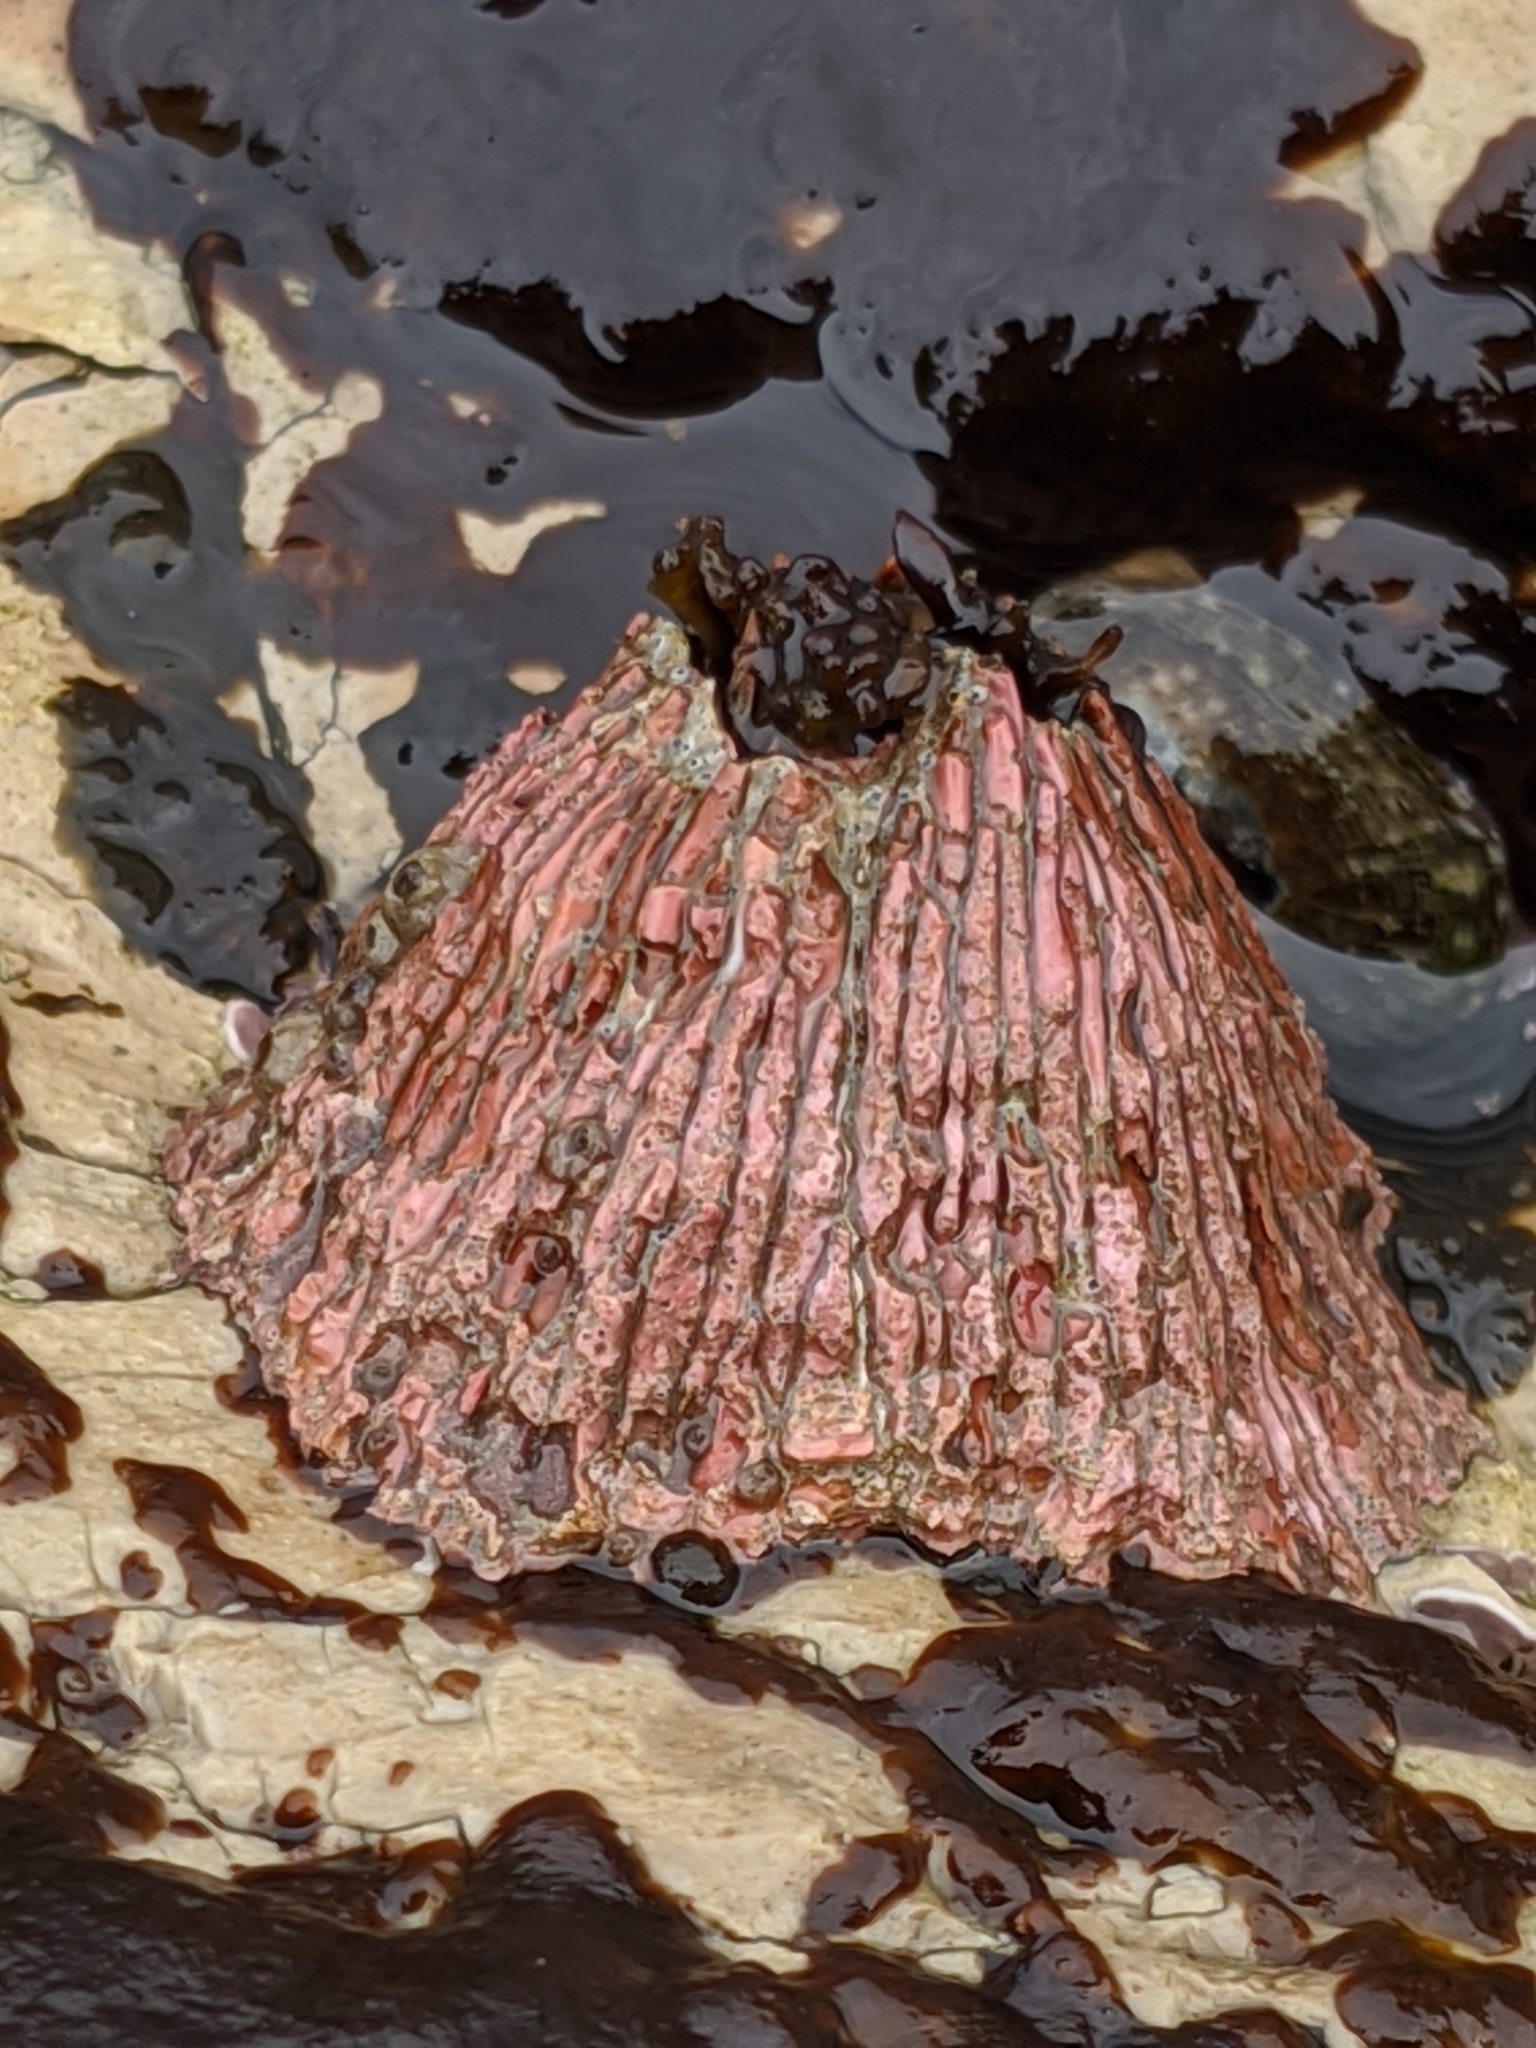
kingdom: Animalia
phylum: Arthropoda
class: Maxillopoda
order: Sessilia
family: Tetraclitidae
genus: Tetraclita
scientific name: Tetraclita rubescens
